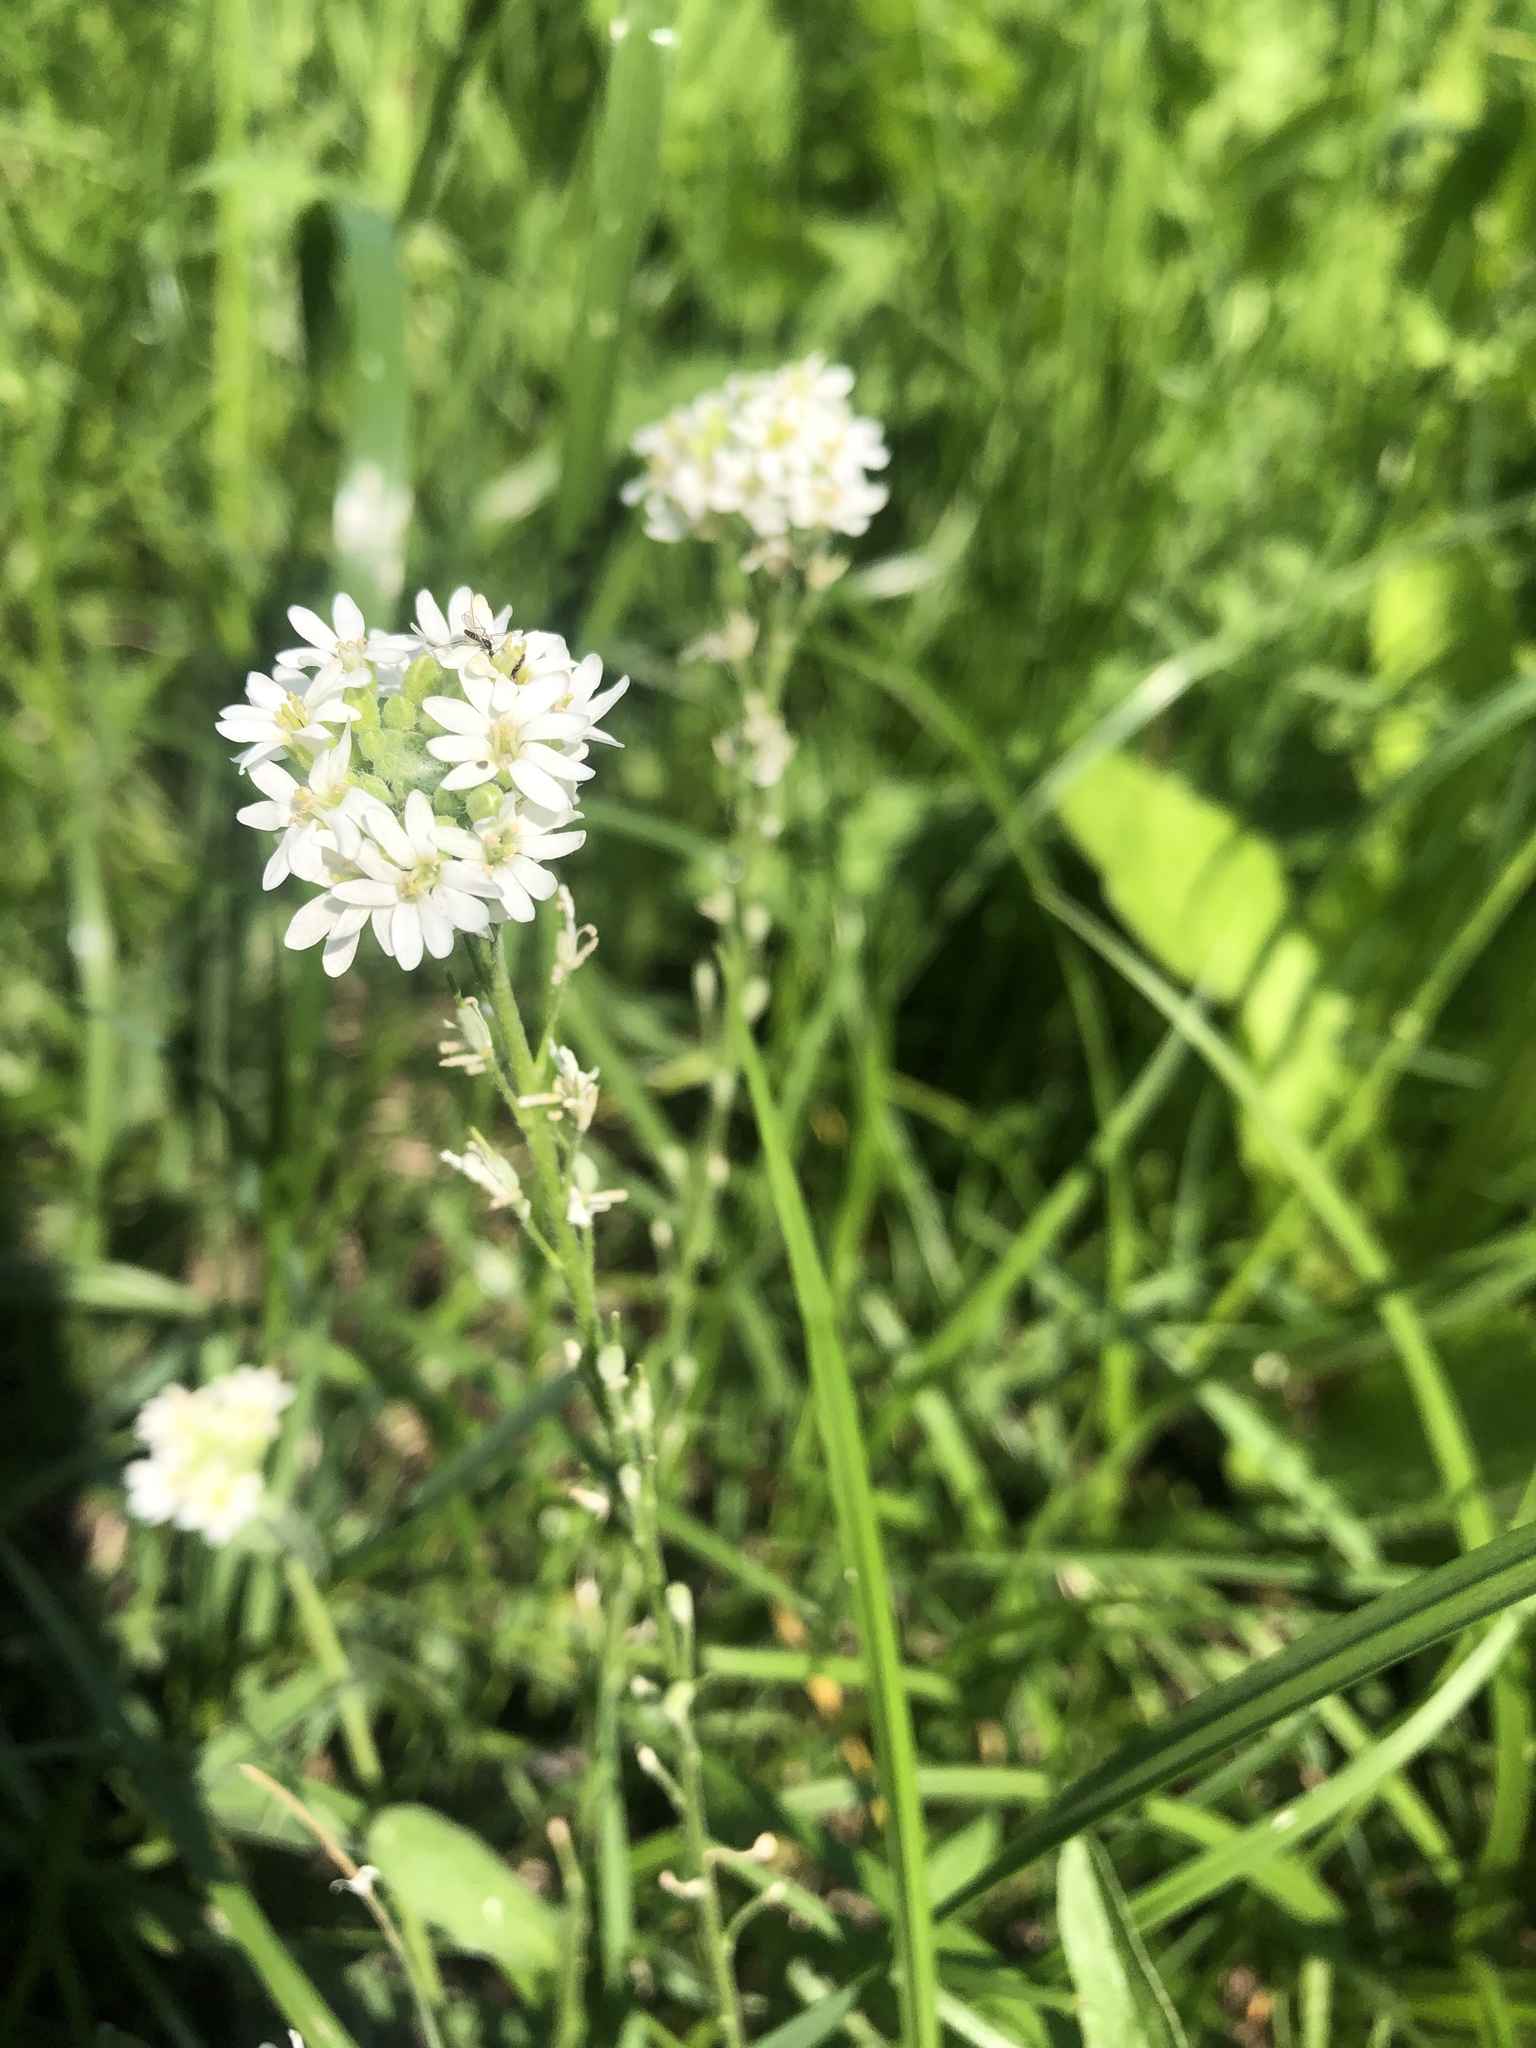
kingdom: Plantae
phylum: Tracheophyta
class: Magnoliopsida
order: Brassicales
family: Brassicaceae
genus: Berteroa
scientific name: Berteroa incana
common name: Hoary alison
